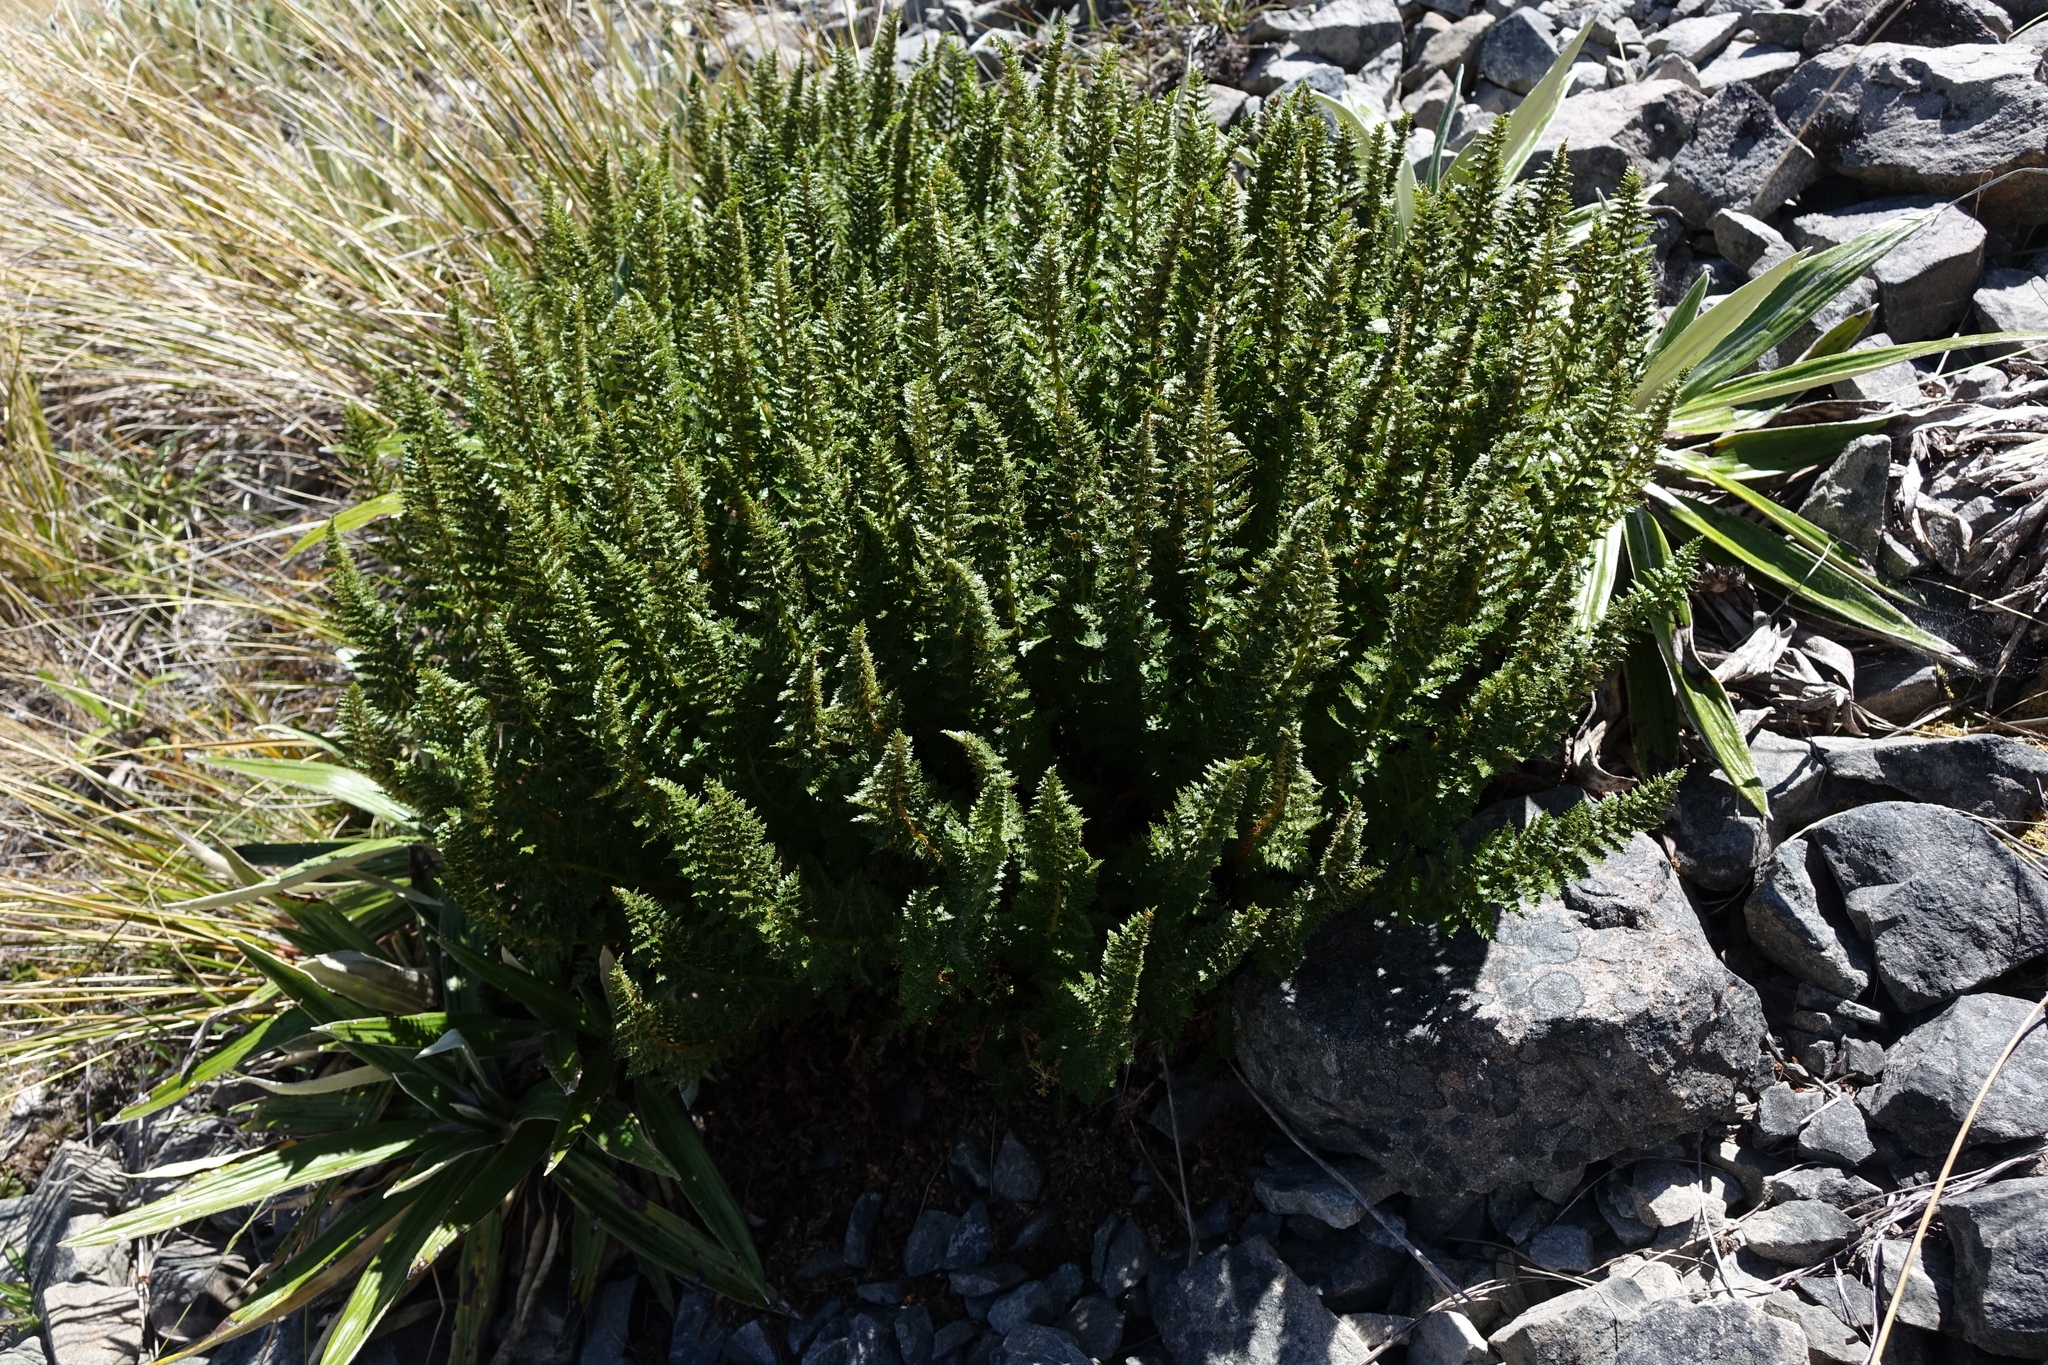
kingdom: Plantae
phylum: Tracheophyta
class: Polypodiopsida
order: Polypodiales
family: Dryopteridaceae
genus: Polystichum
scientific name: Polystichum cystostegia
